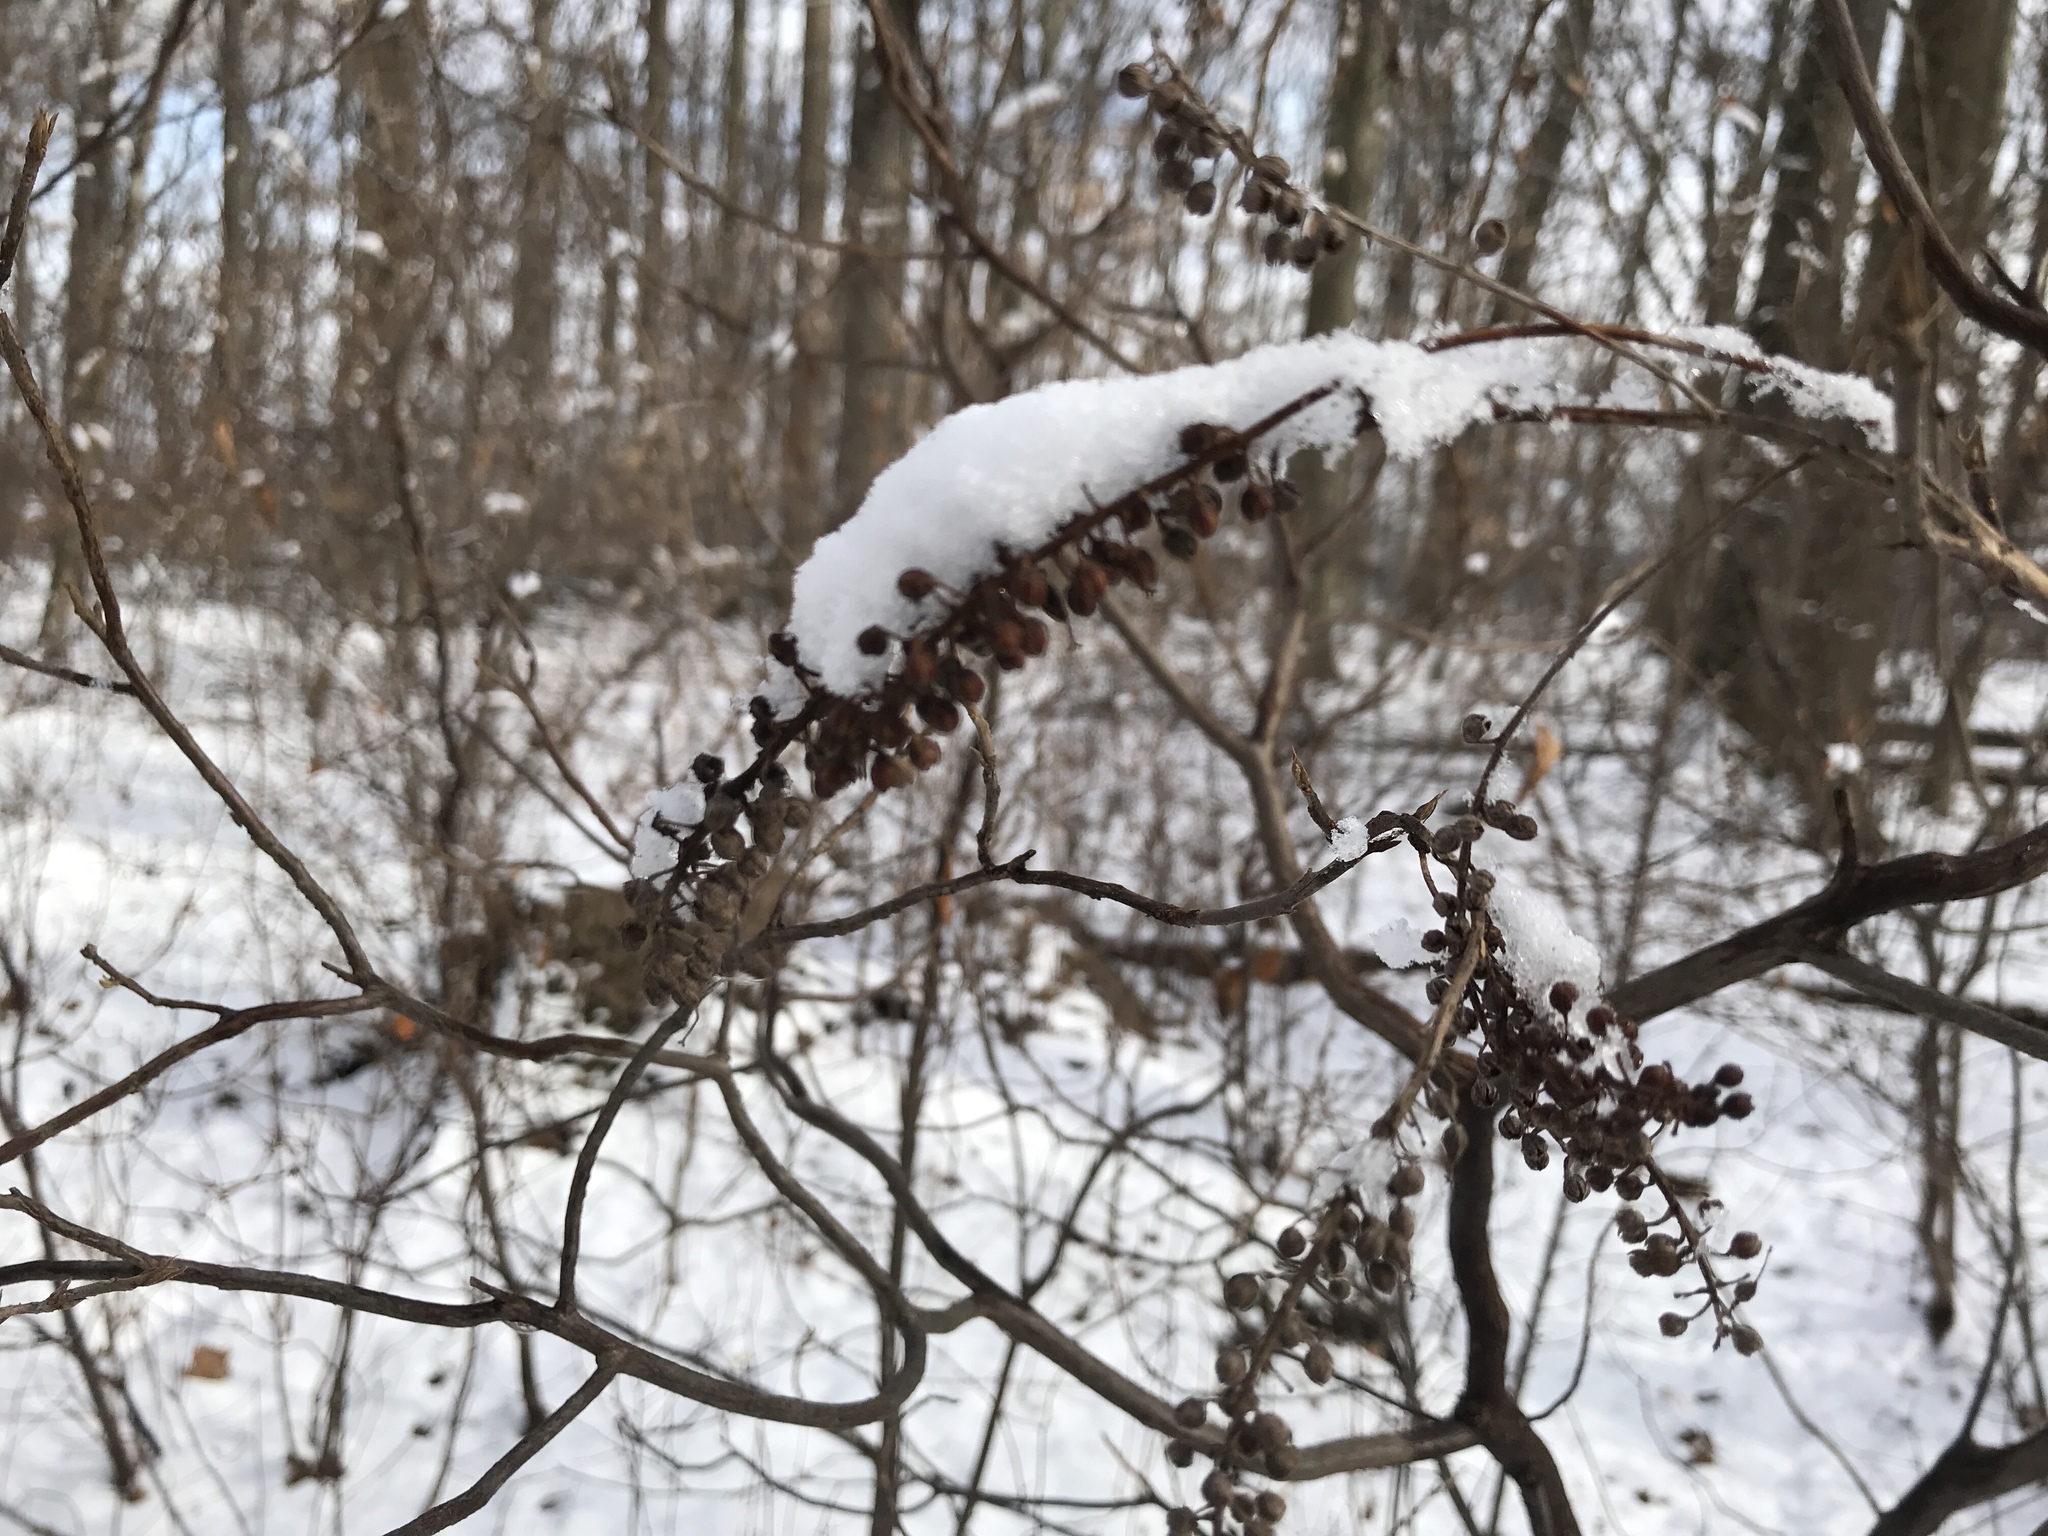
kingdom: Plantae
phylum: Tracheophyta
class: Magnoliopsida
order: Ericales
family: Clethraceae
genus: Clethra
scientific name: Clethra alnifolia
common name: Sweet pepperbush
